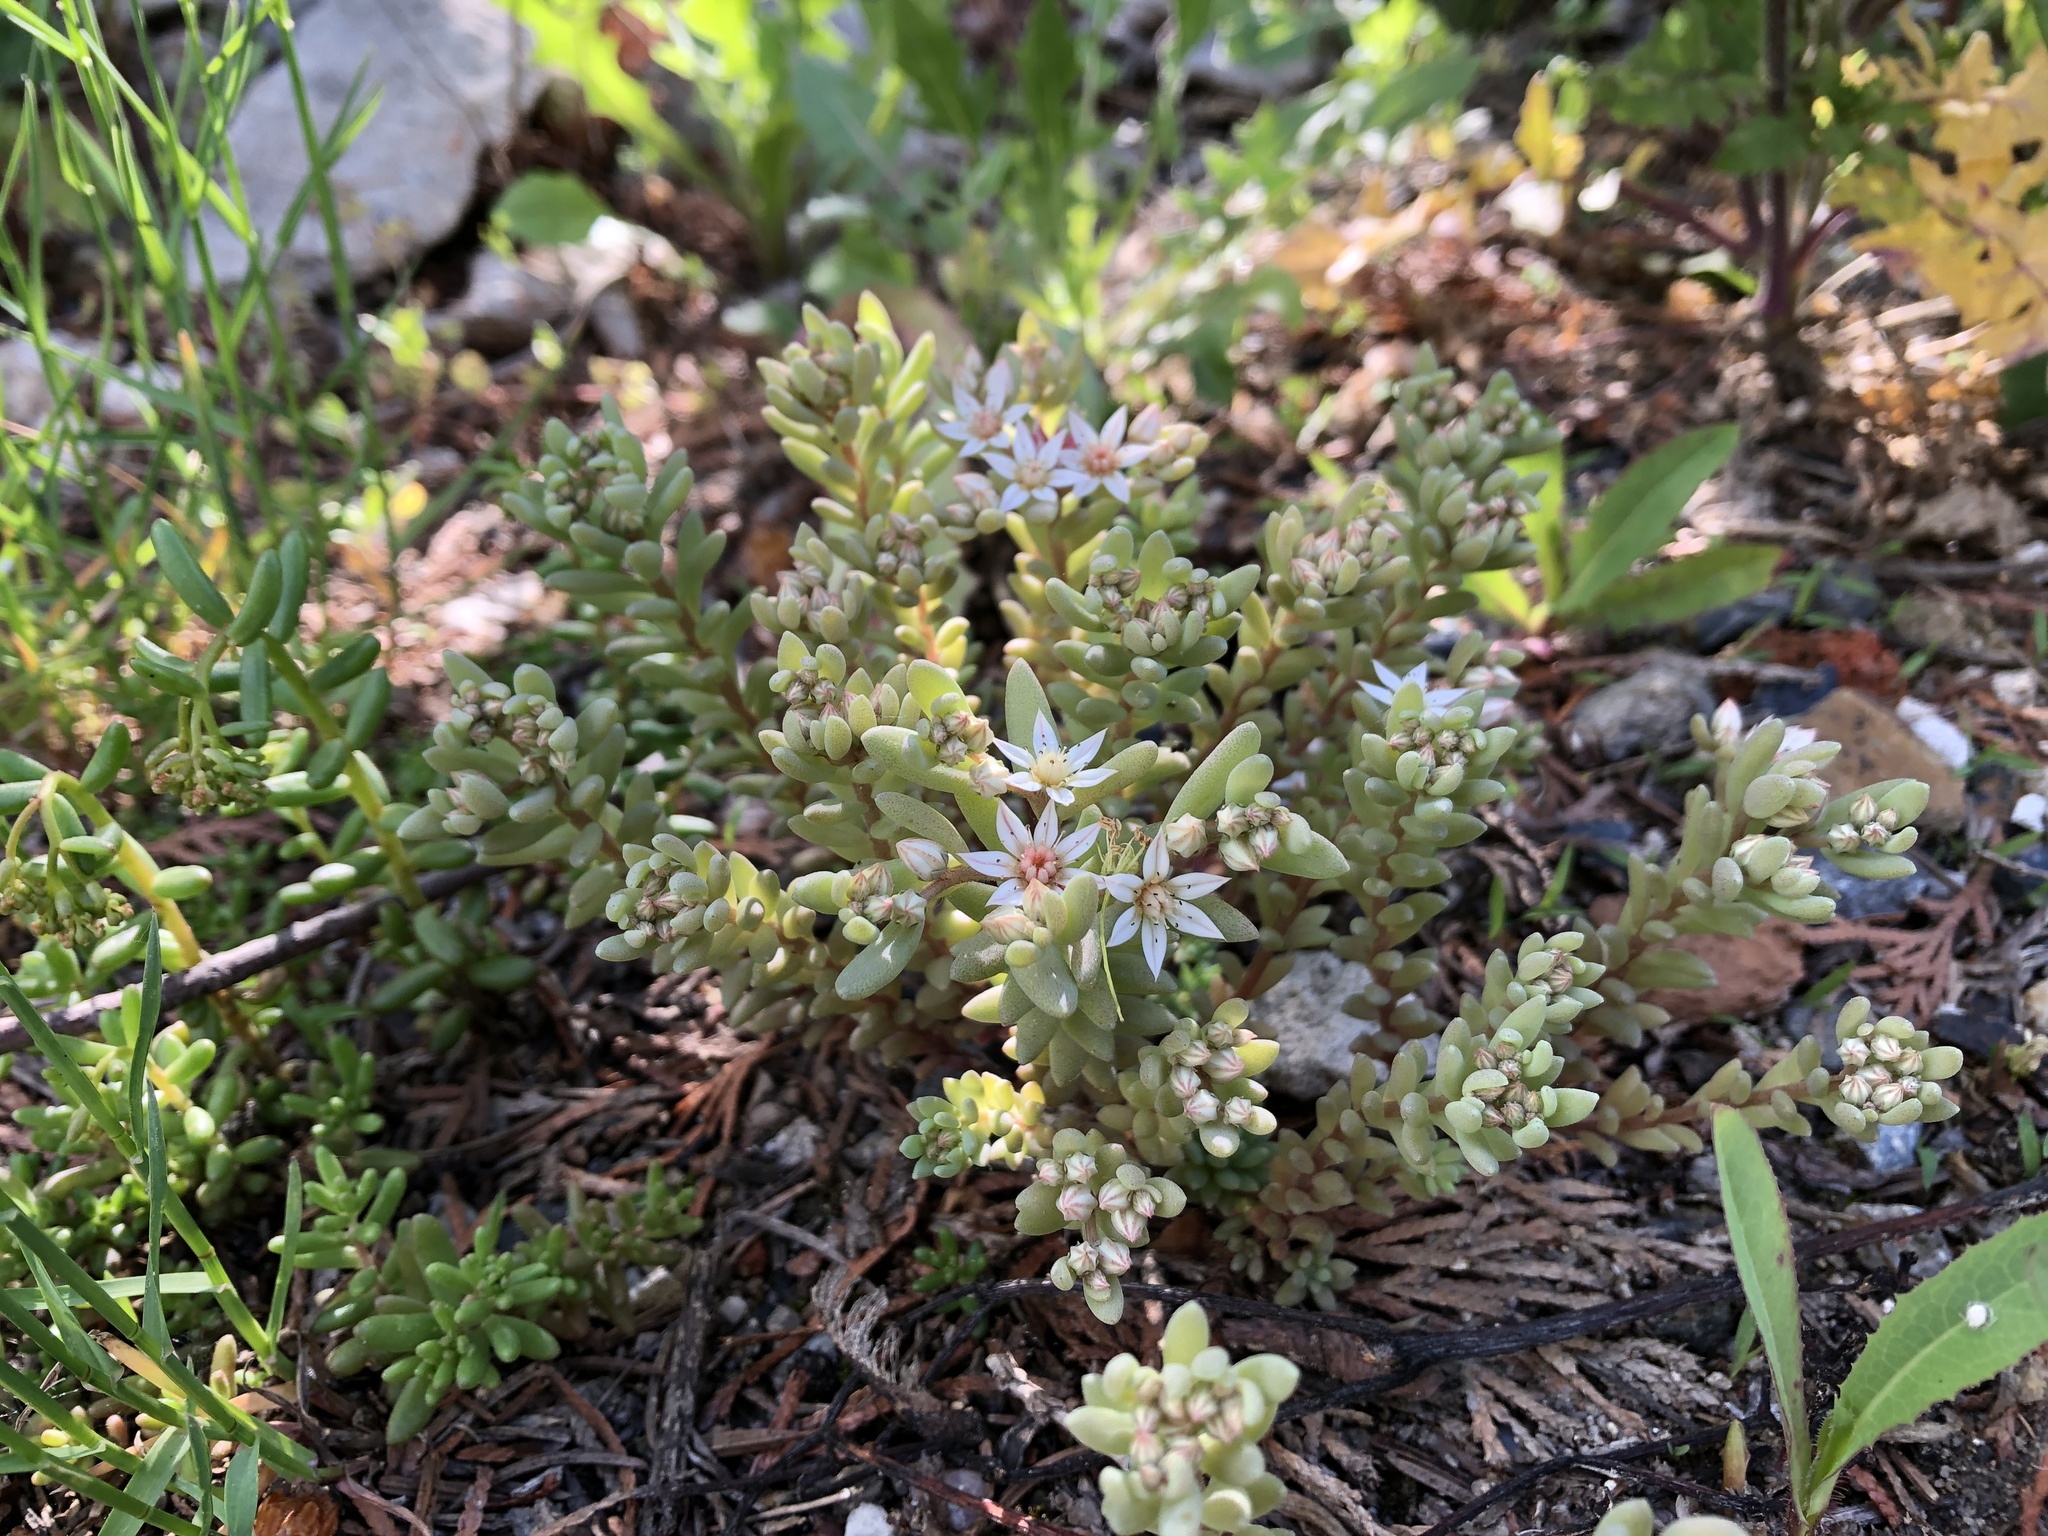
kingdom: Plantae
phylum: Tracheophyta
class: Magnoliopsida
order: Saxifragales
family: Crassulaceae
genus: Sedum
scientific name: Sedum hispanicum
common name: Spanish stonecrop
